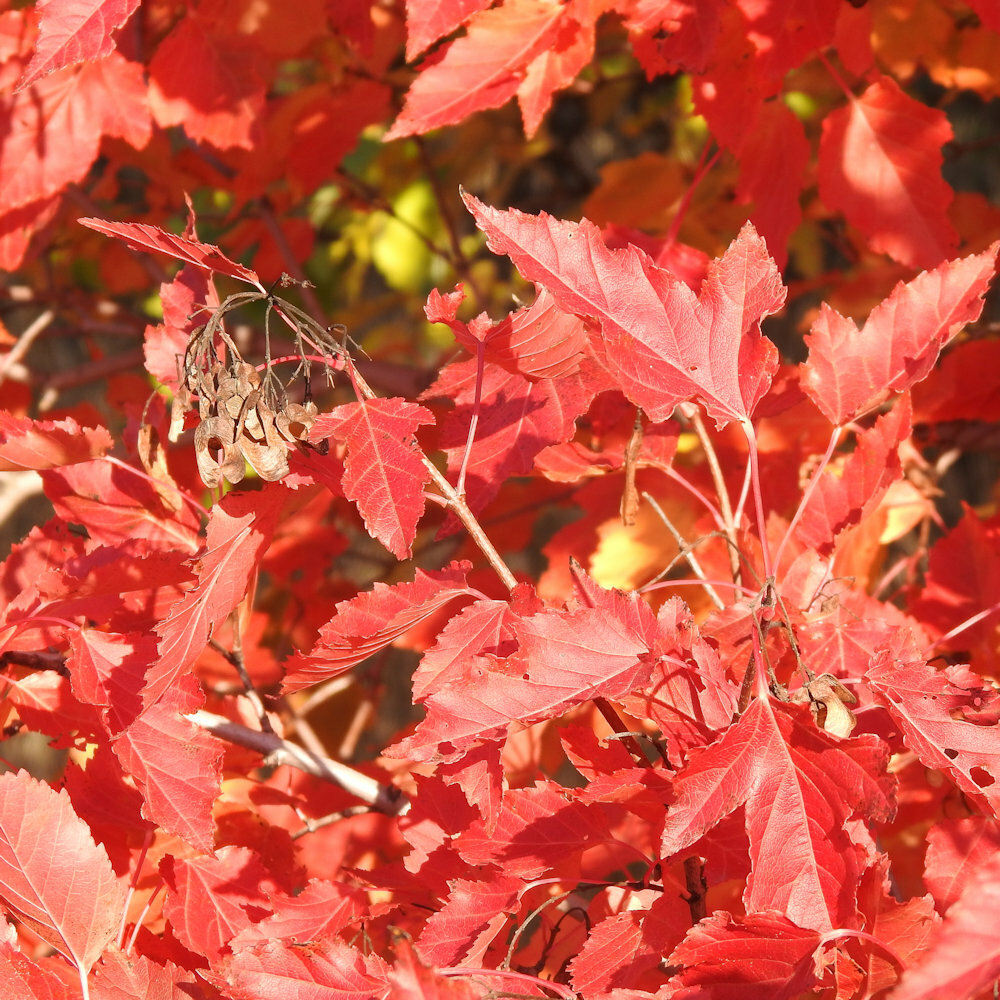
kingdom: Plantae
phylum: Tracheophyta
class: Magnoliopsida
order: Sapindales
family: Sapindaceae
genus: Acer
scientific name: Acer tataricum
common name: Tartar maple
